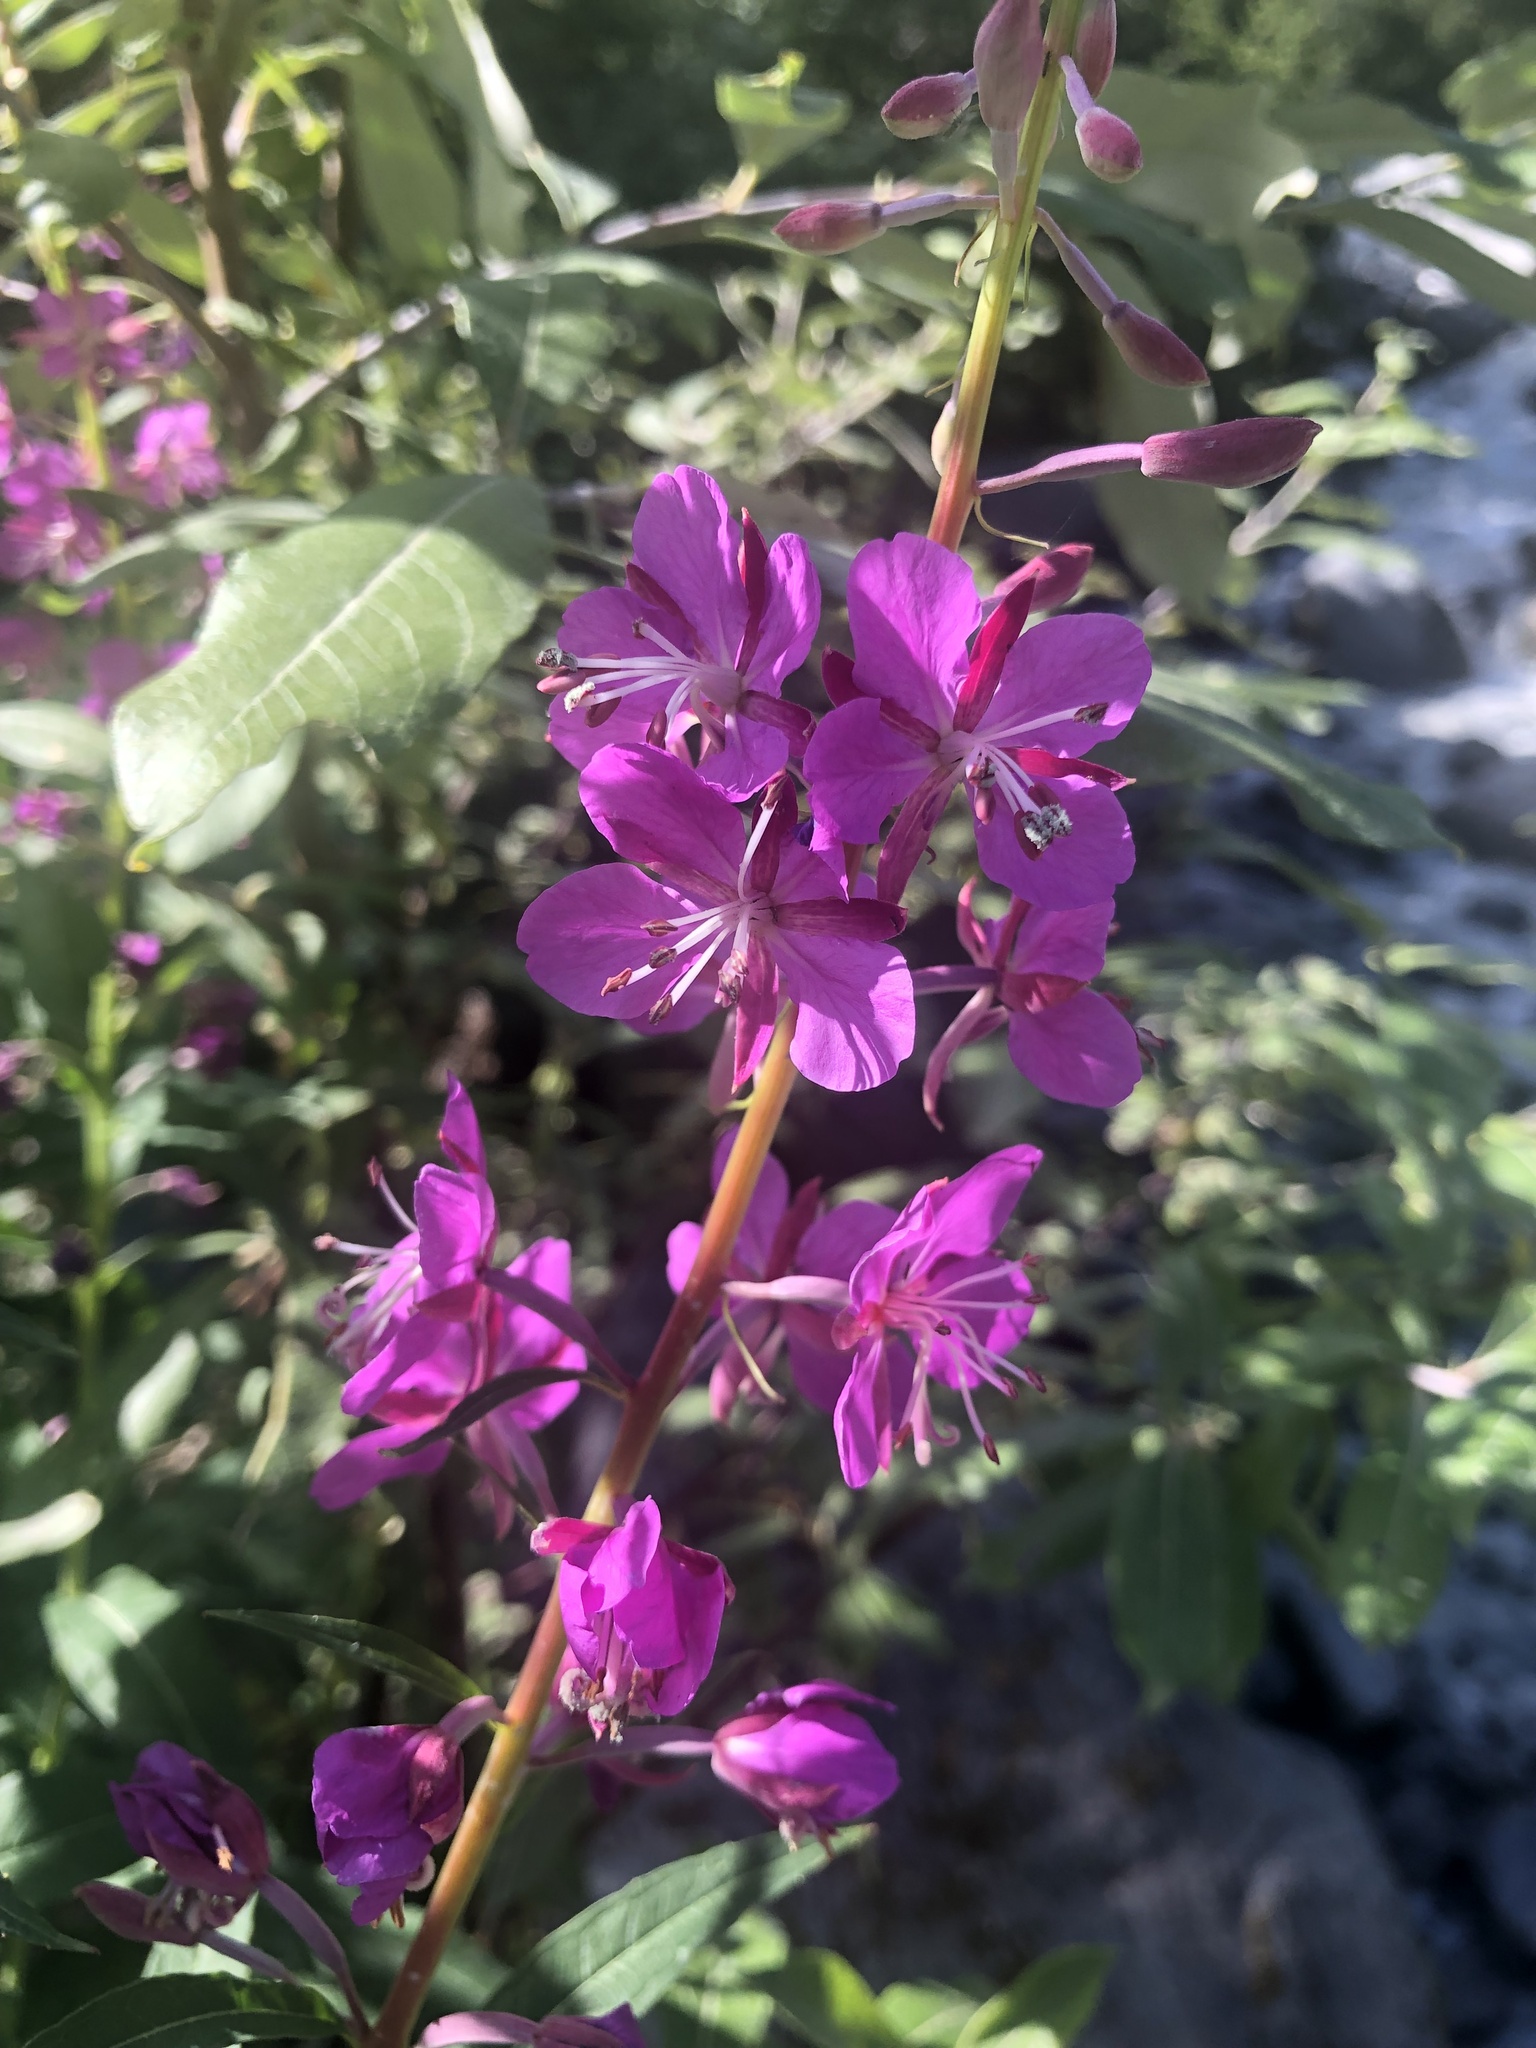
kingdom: Plantae
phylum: Tracheophyta
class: Magnoliopsida
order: Myrtales
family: Onagraceae
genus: Chamaenerion
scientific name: Chamaenerion angustifolium
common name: Fireweed
